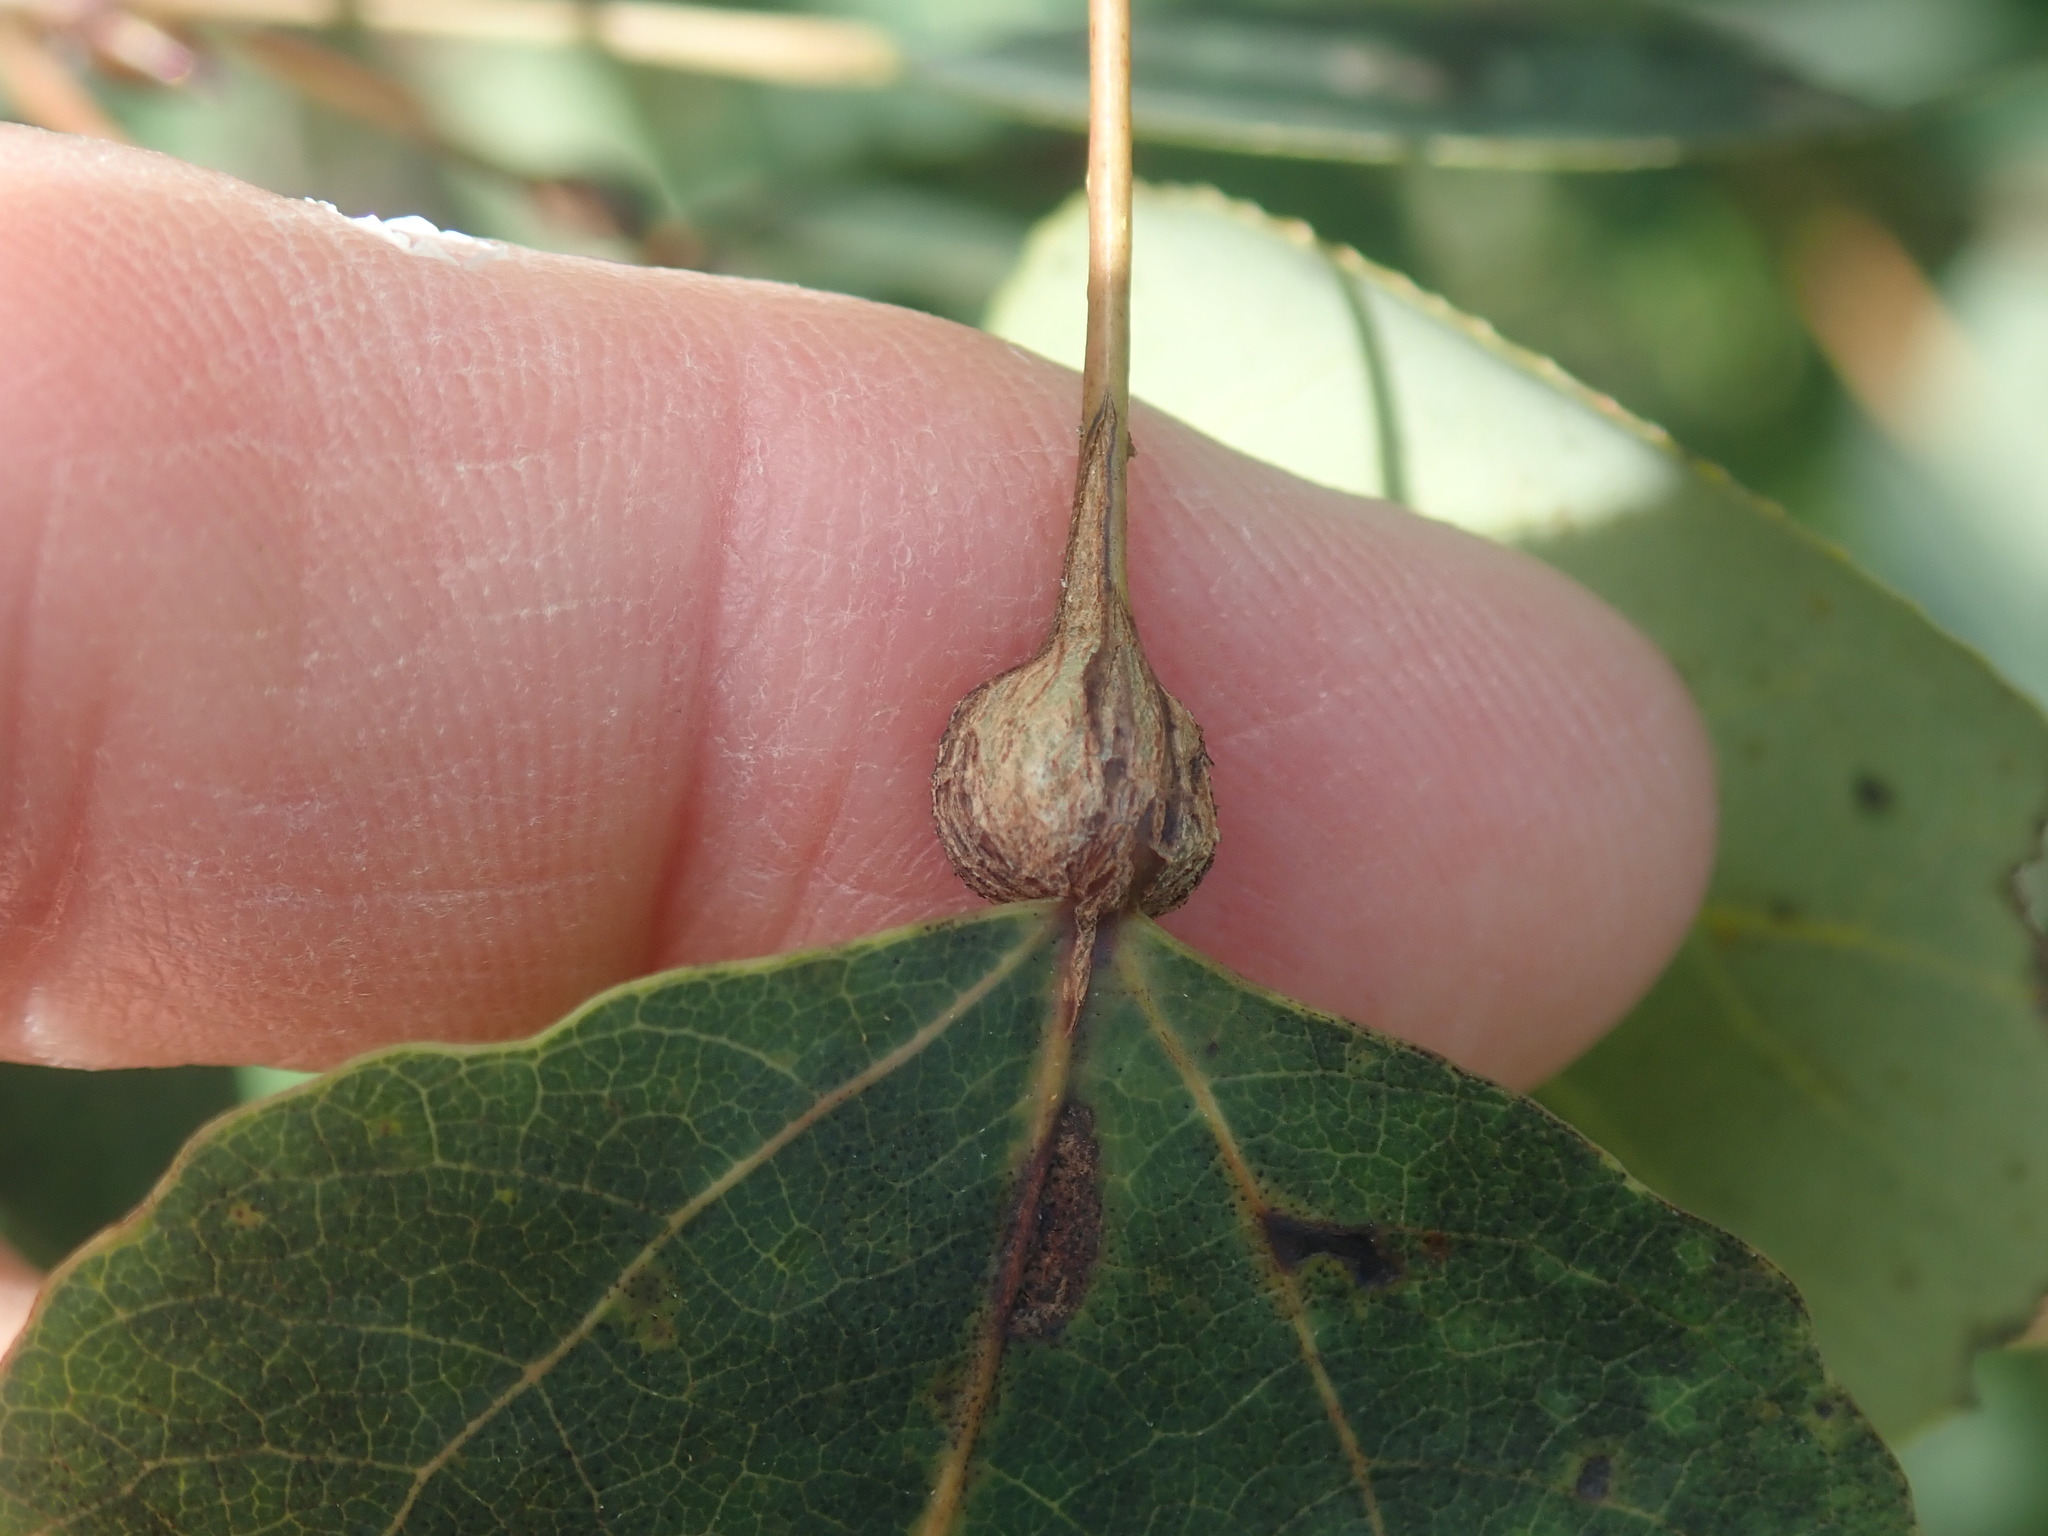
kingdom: Animalia
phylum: Arthropoda
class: Insecta
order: Lepidoptera
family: Nepticulidae
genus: Ectoedemia
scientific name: Ectoedemia populella
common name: Aspen petiole gall moth
